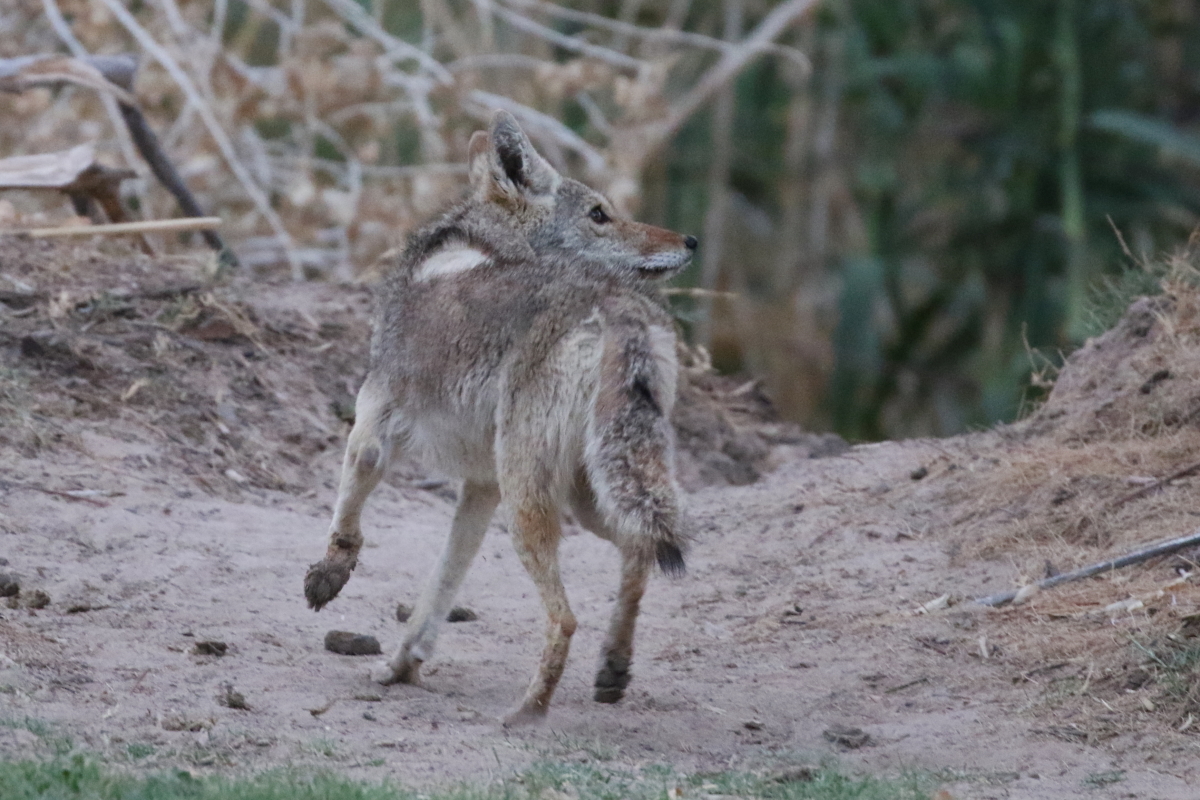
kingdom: Animalia
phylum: Chordata
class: Mammalia
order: Carnivora
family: Canidae
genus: Canis
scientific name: Canis latrans
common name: Coyote
